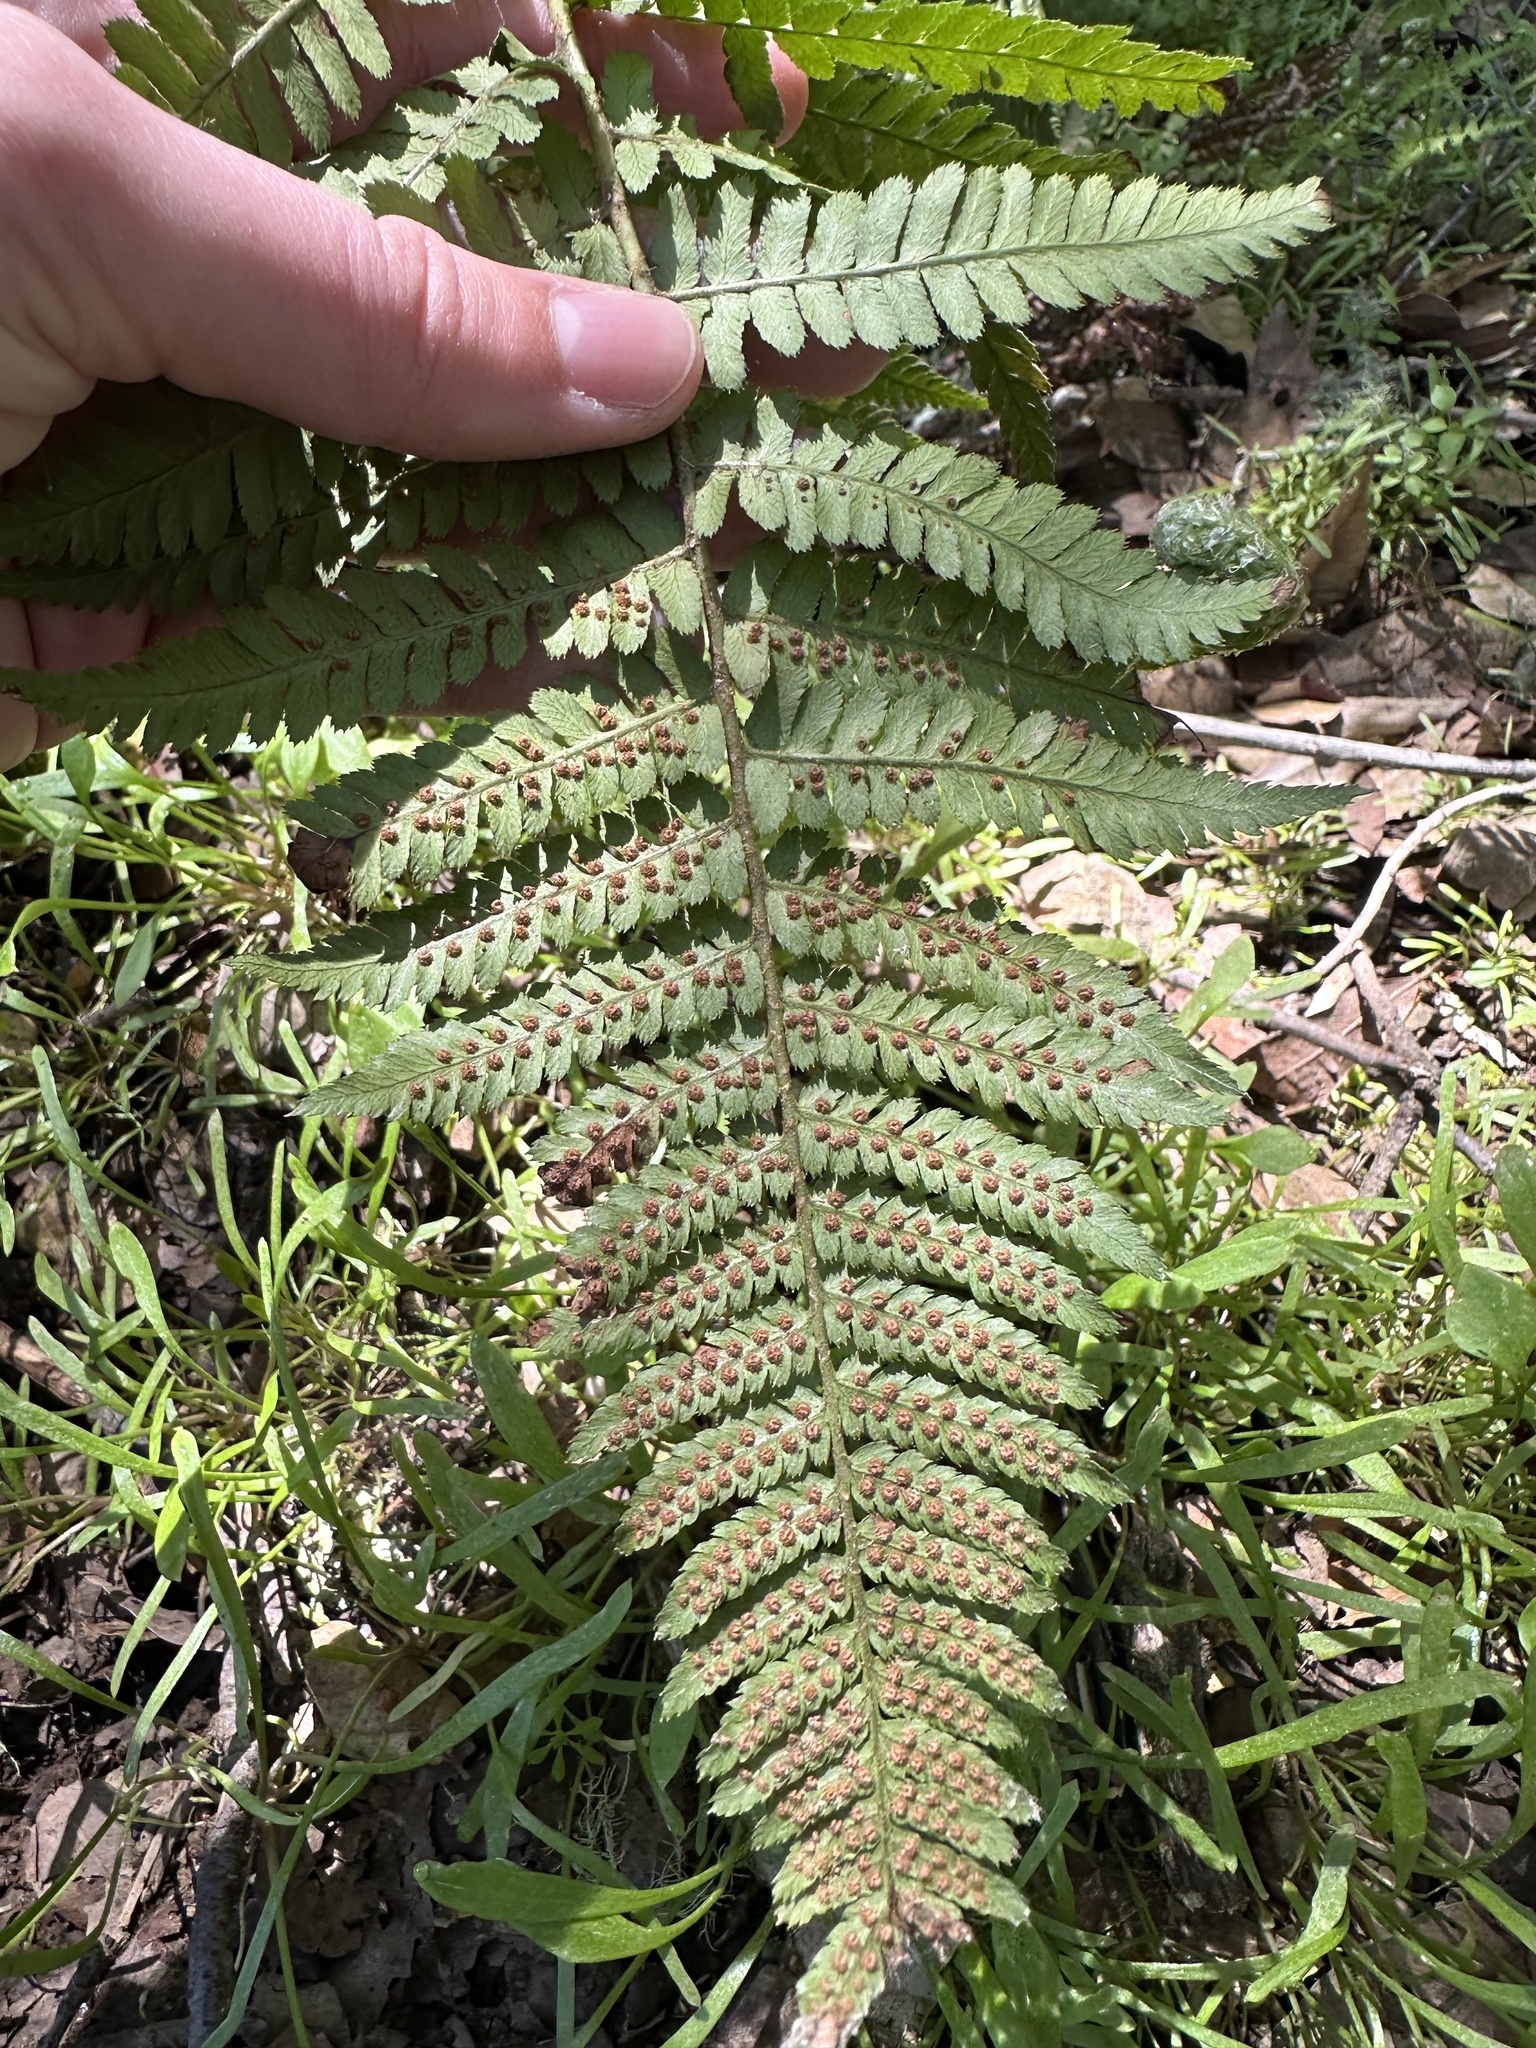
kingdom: Plantae
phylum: Tracheophyta
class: Polypodiopsida
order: Polypodiales
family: Dryopteridaceae
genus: Dryopteris
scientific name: Dryopteris arguta
